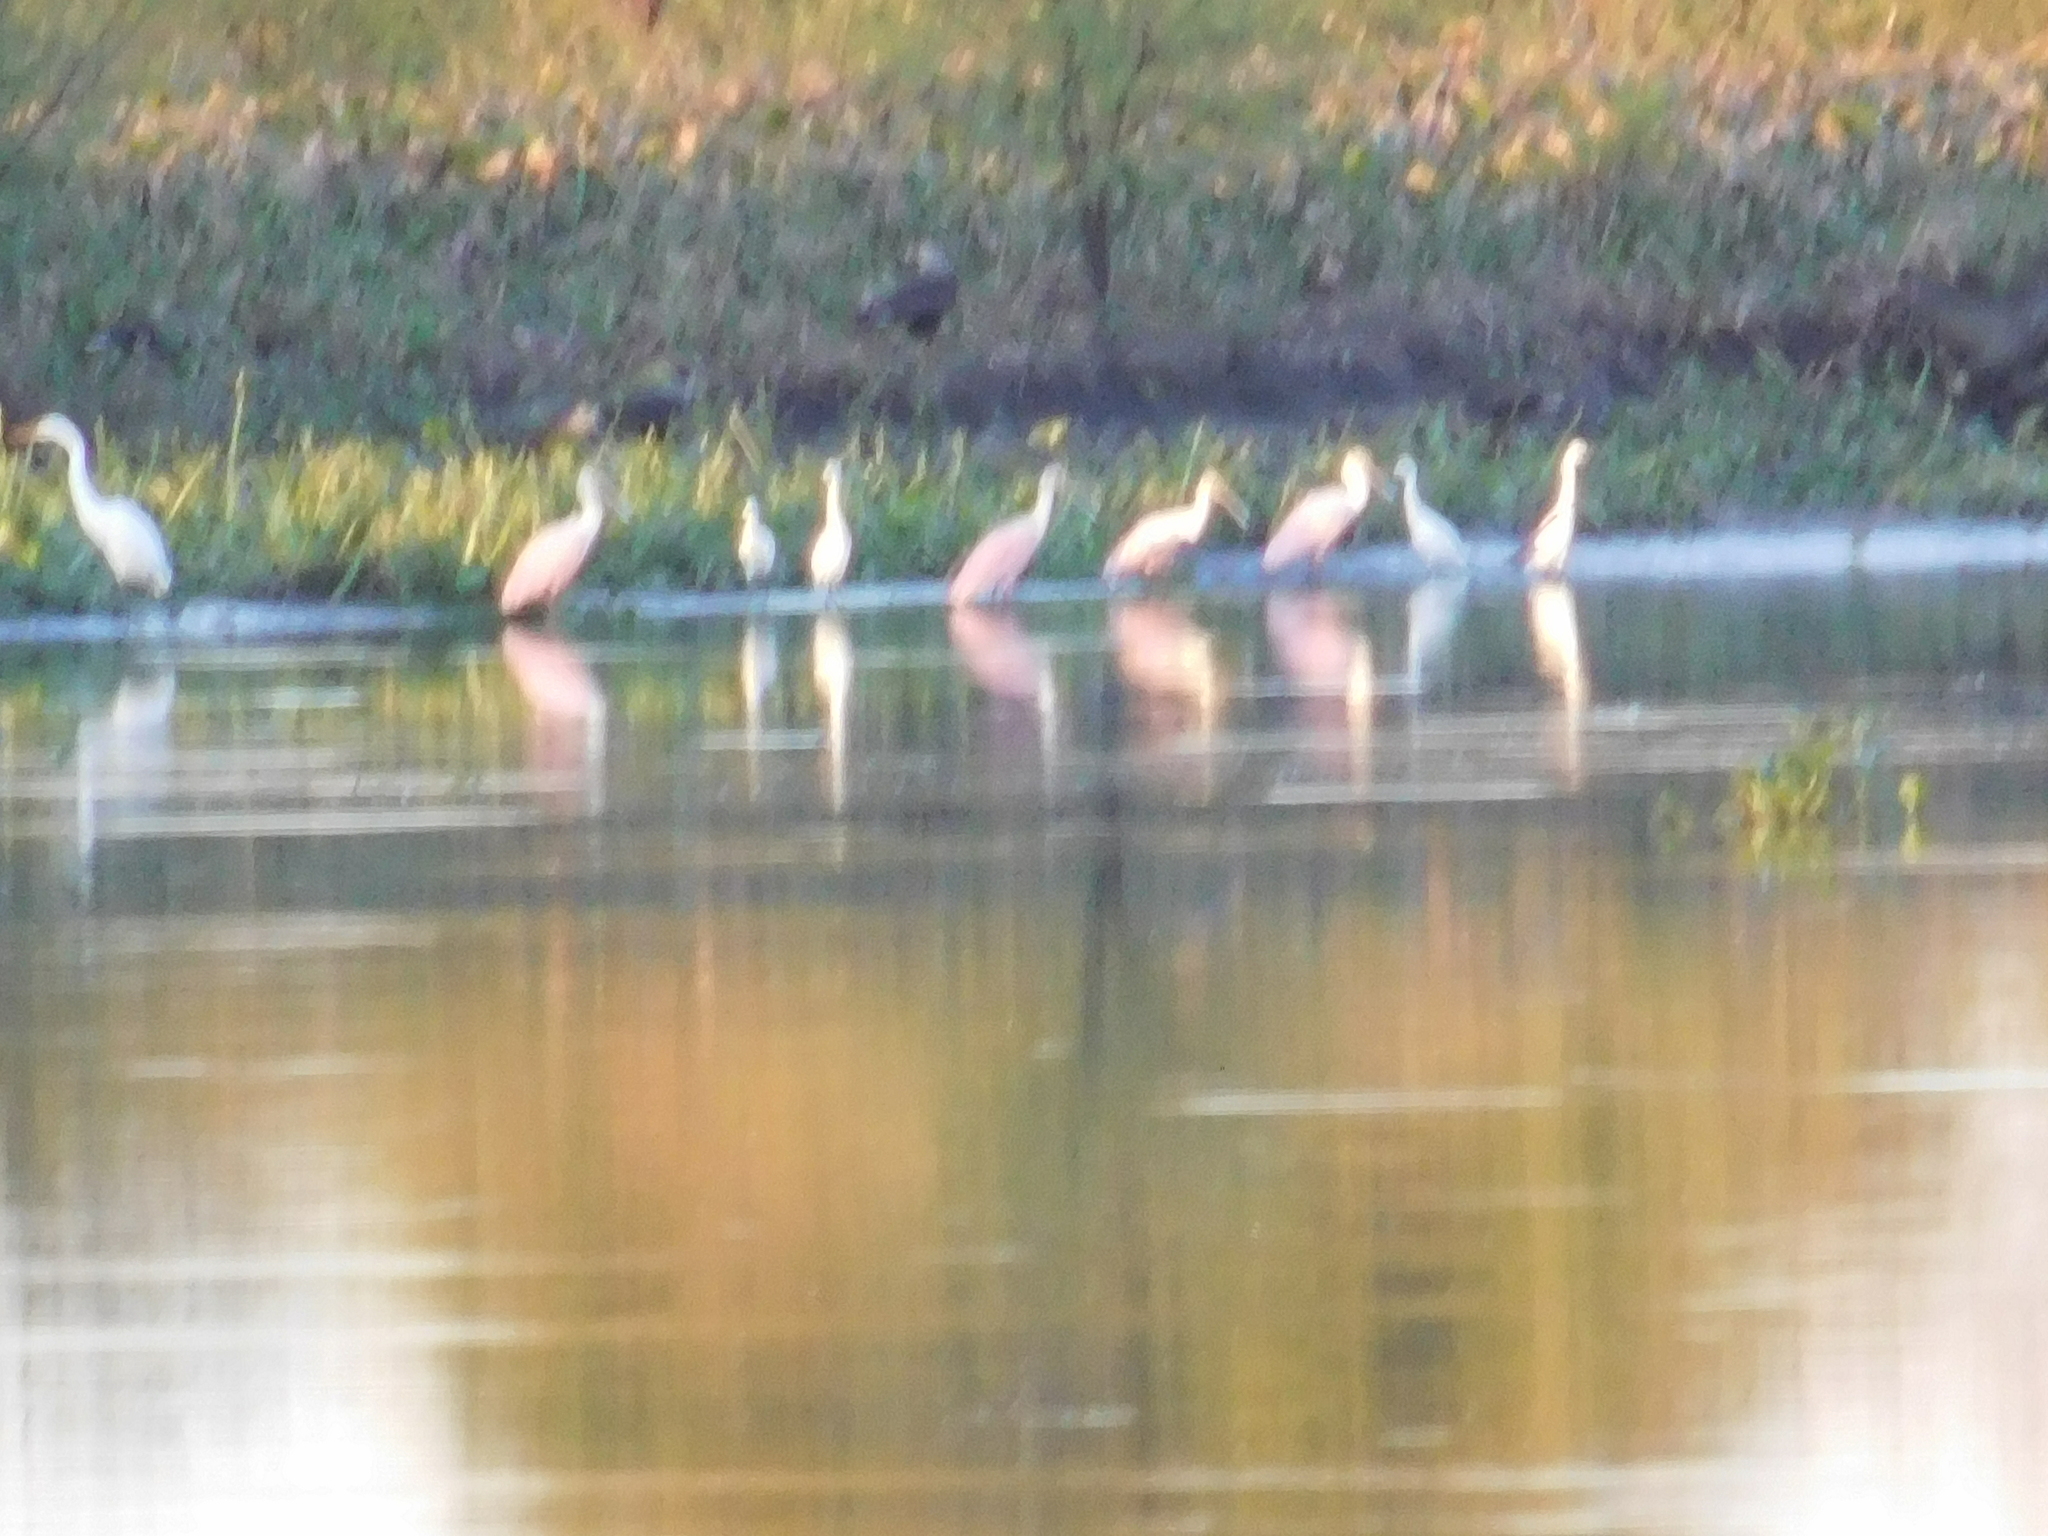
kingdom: Animalia
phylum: Chordata
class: Aves
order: Pelecaniformes
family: Threskiornithidae
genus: Platalea
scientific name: Platalea ajaja
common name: Roseate spoonbill
